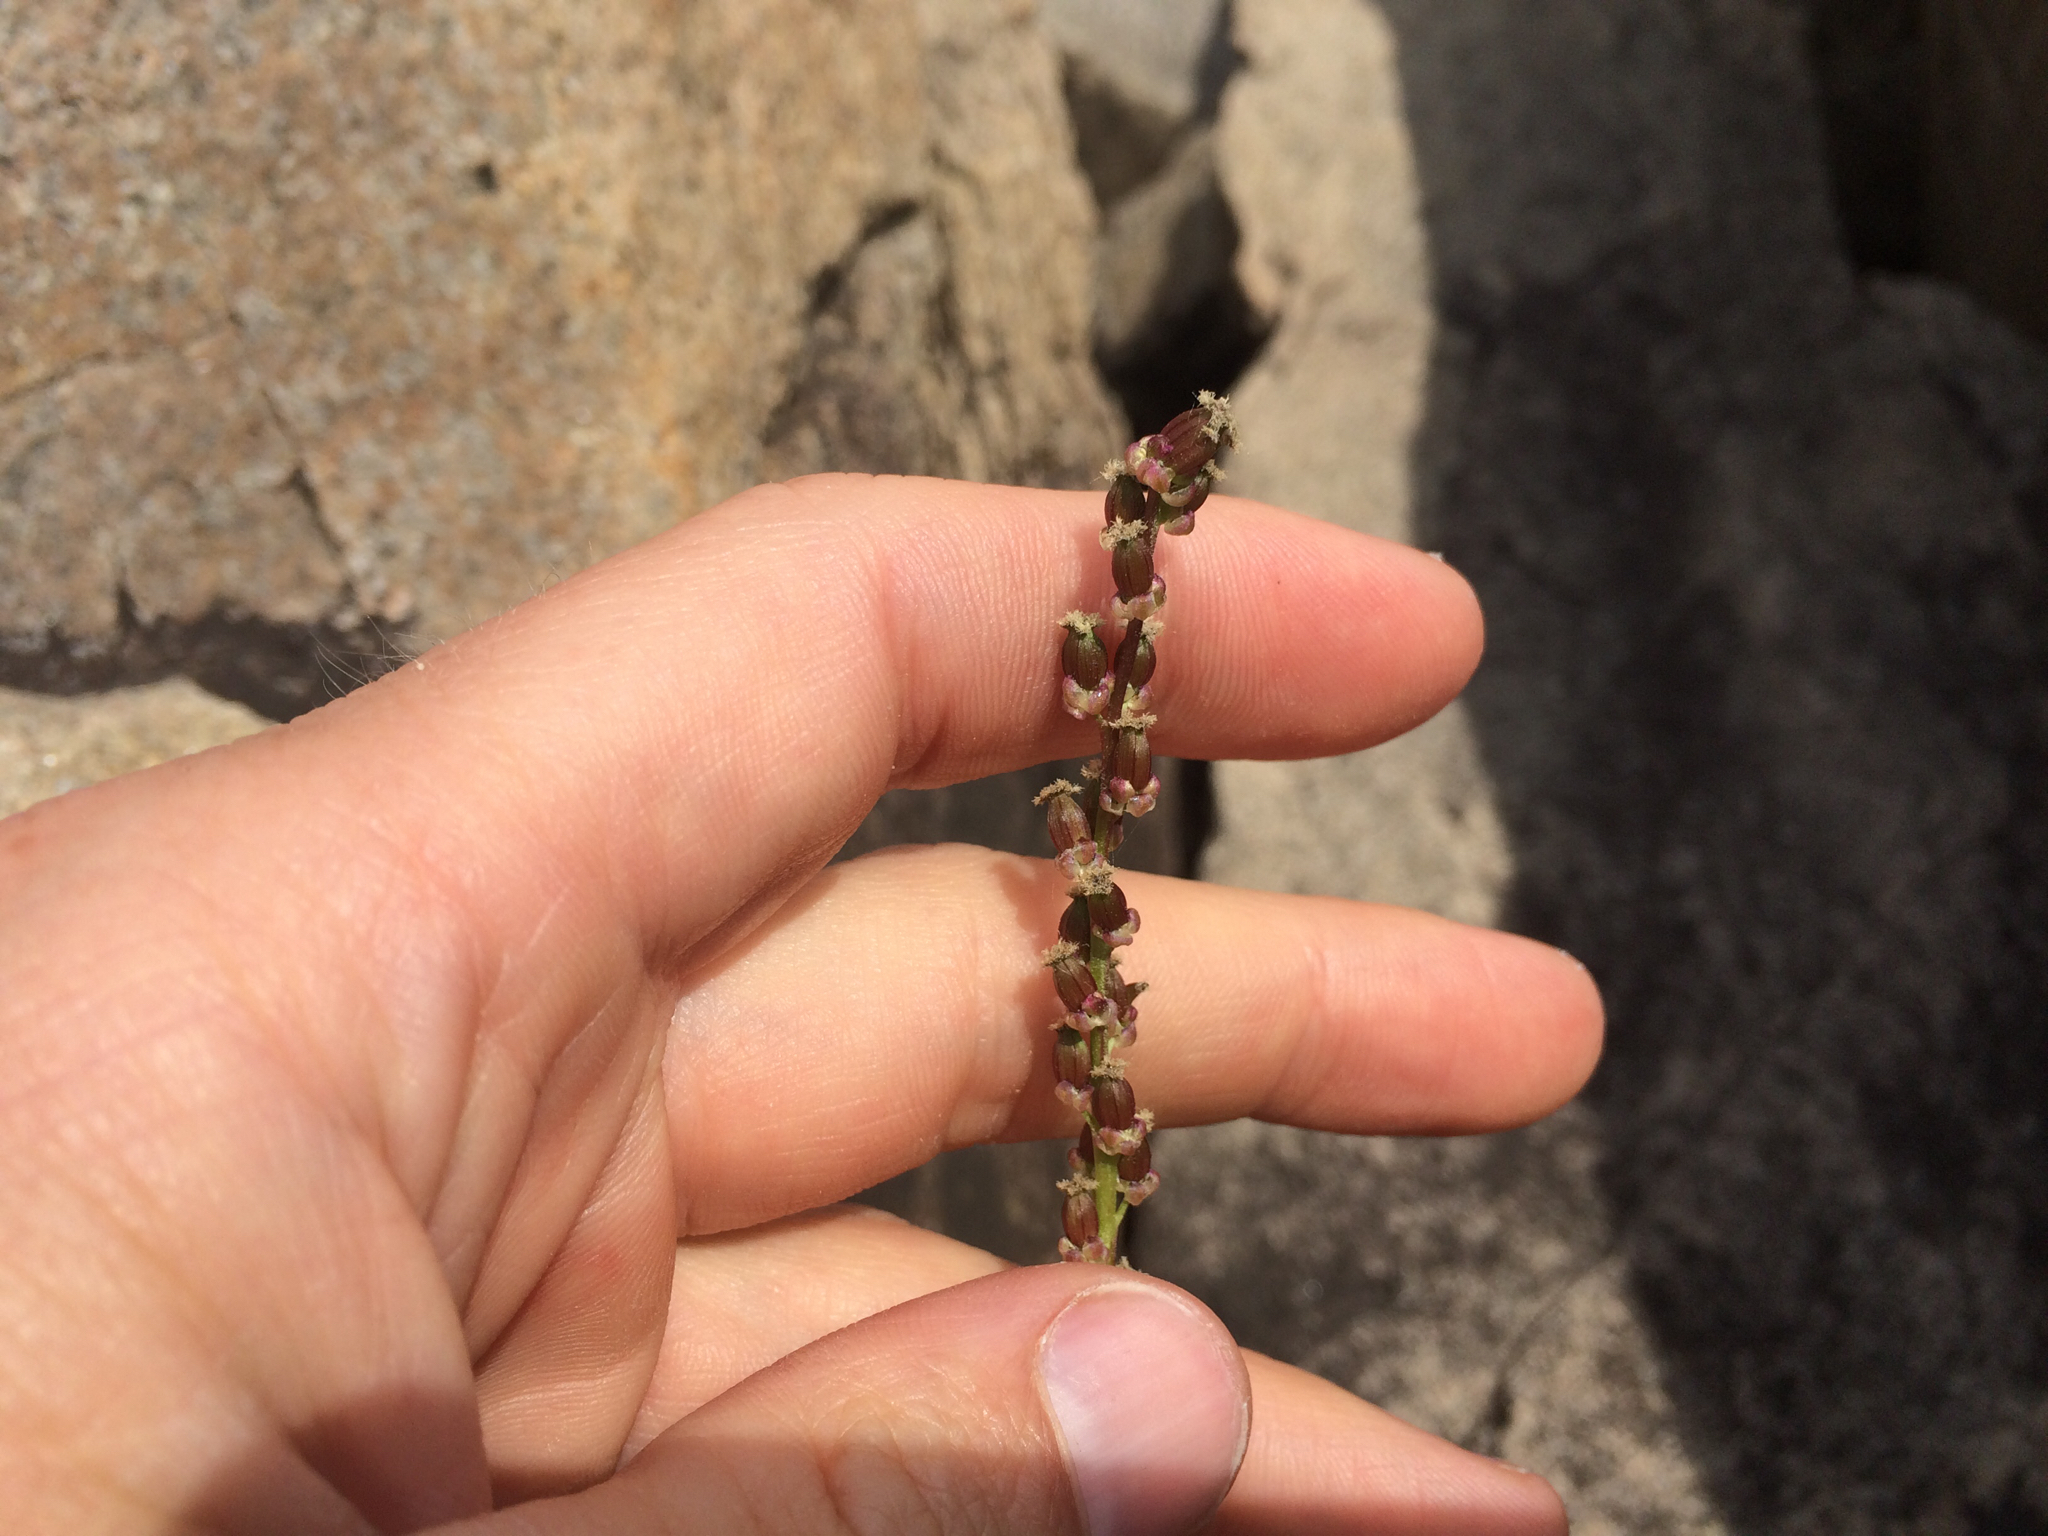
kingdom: Plantae
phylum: Tracheophyta
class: Liliopsida
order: Alismatales
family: Juncaginaceae
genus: Triglochin
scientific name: Triglochin maritima
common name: Sea arrowgrass
